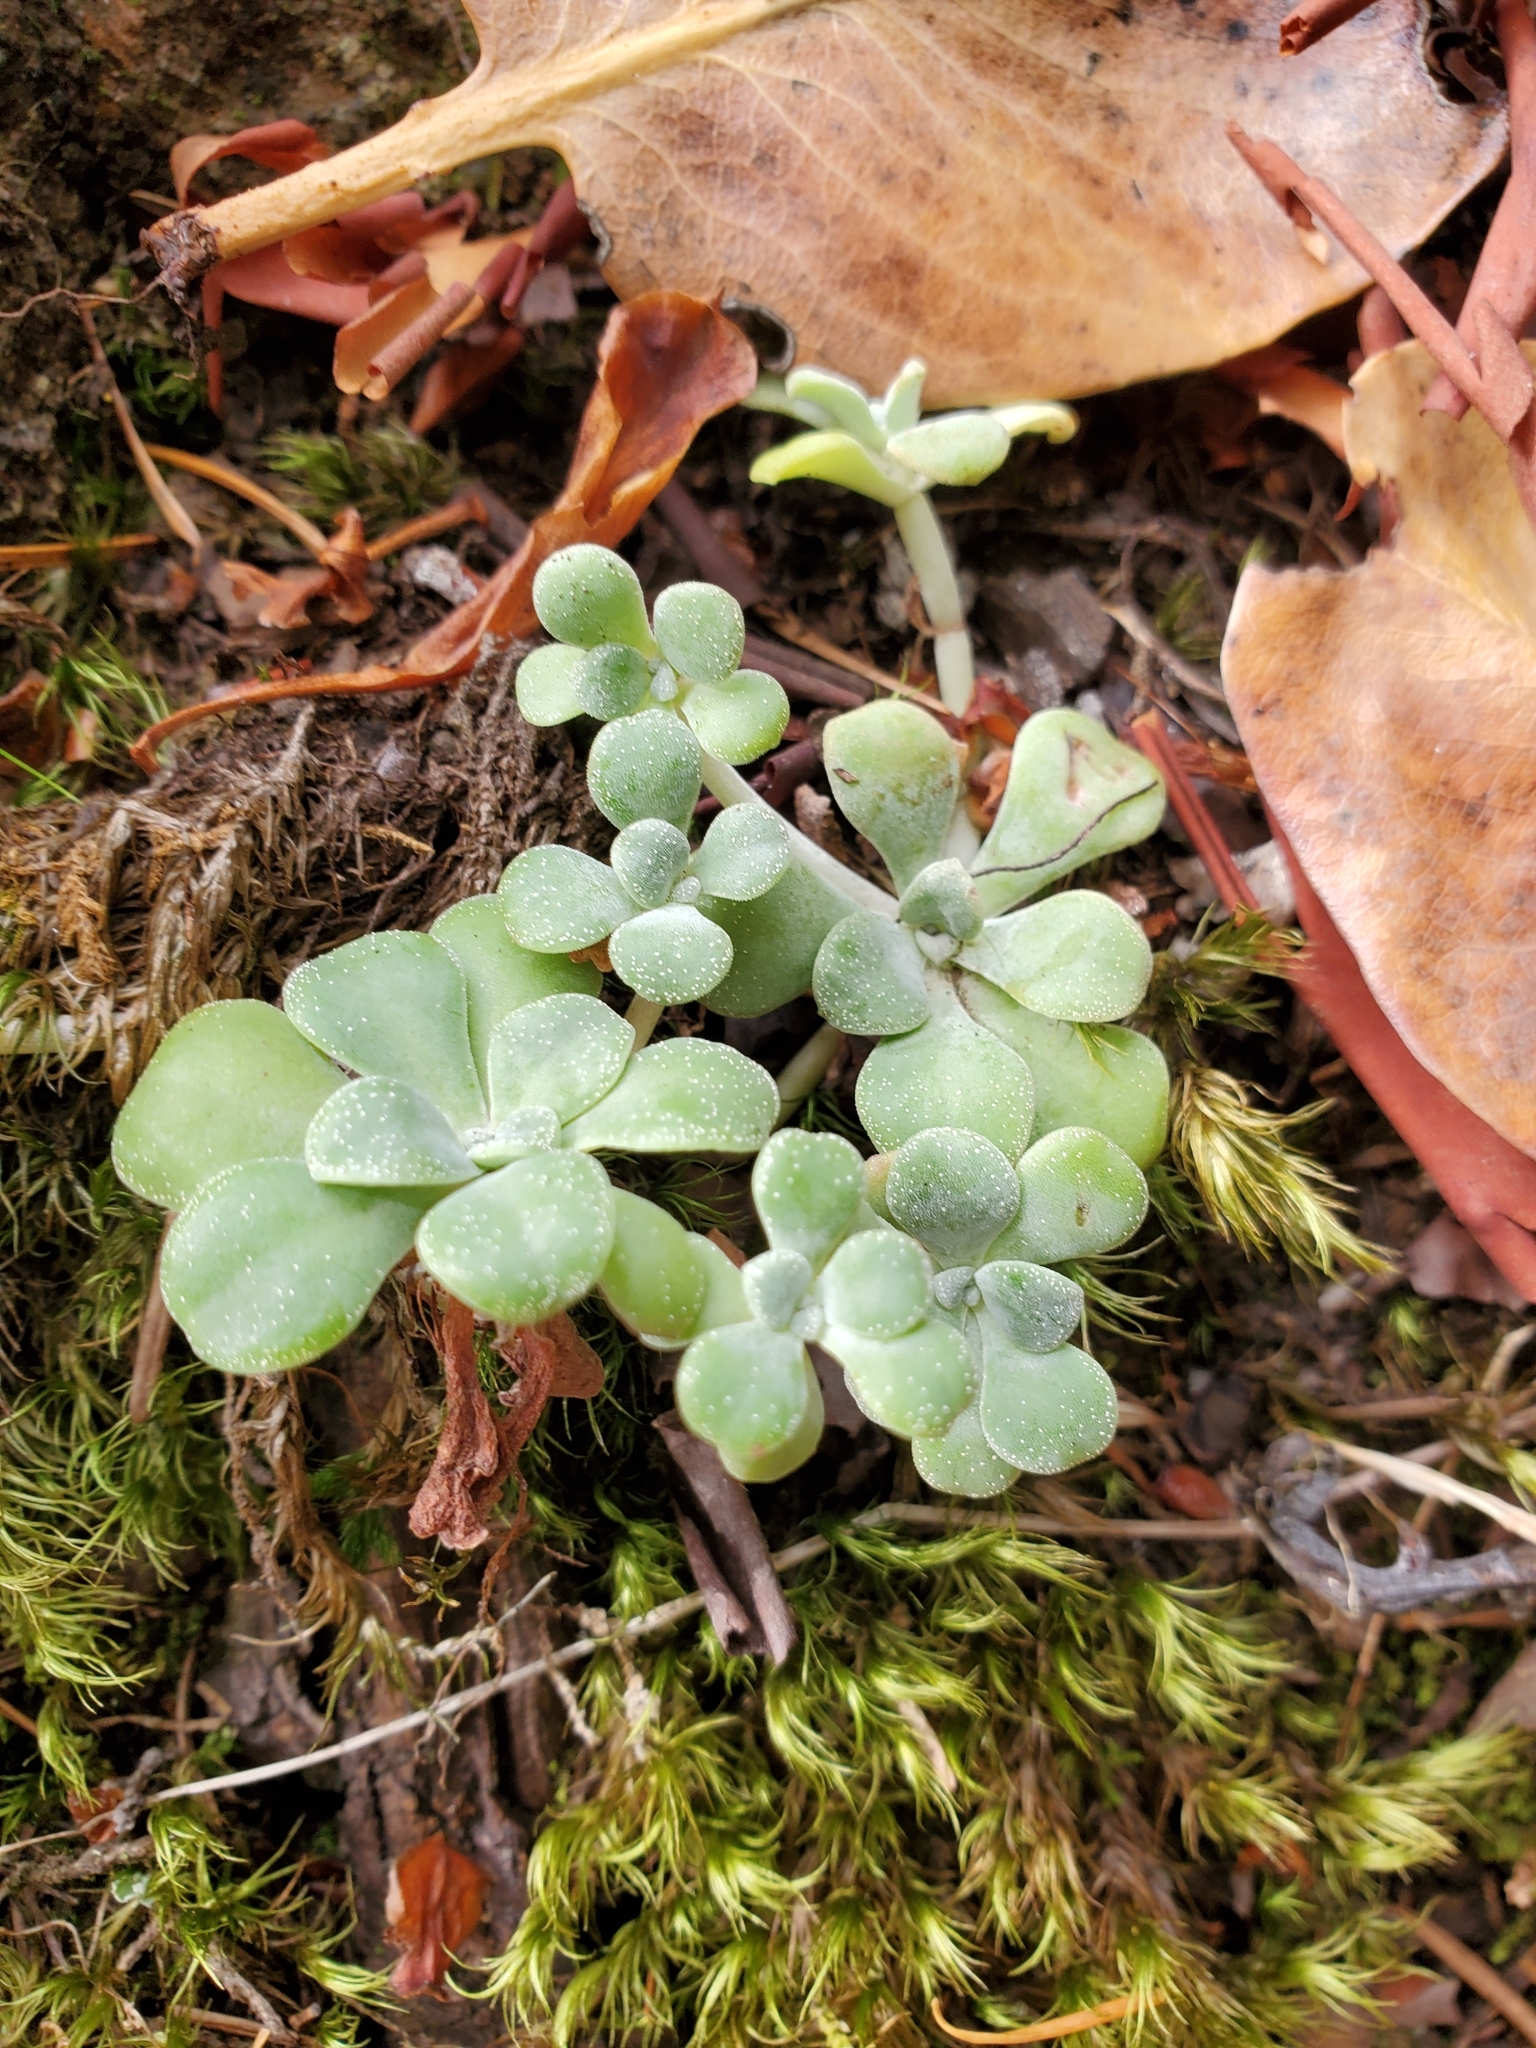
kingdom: Plantae
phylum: Tracheophyta
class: Magnoliopsida
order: Saxifragales
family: Crassulaceae
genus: Sedum
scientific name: Sedum spathulifolium
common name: Colorado stonecrop
